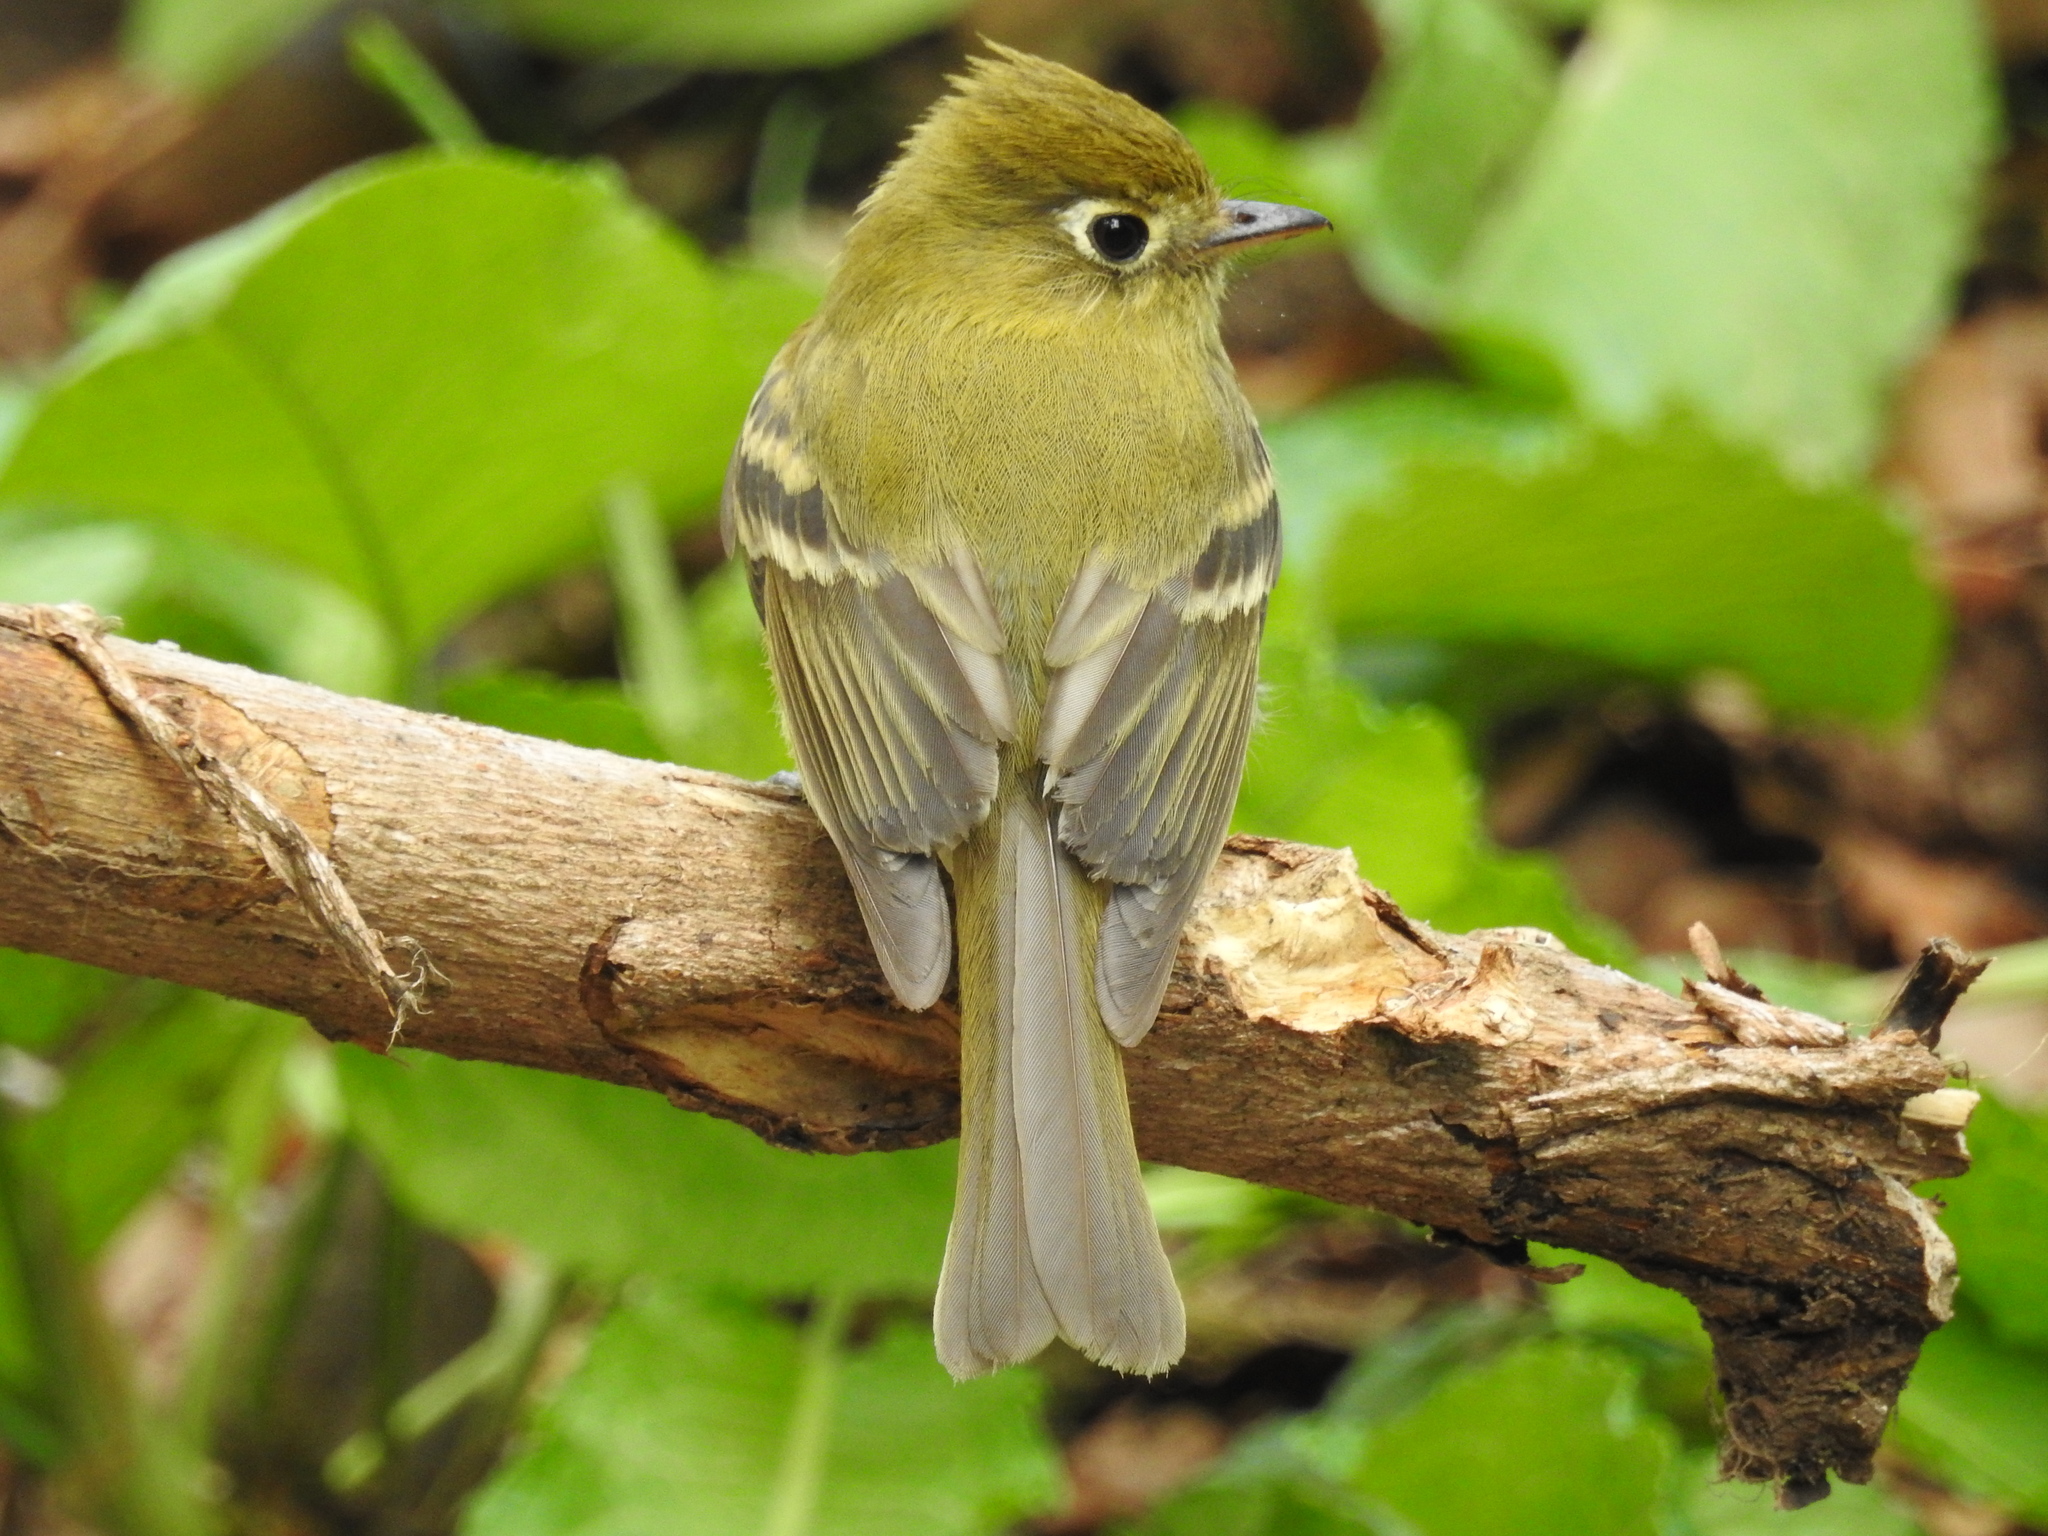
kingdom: Animalia
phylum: Chordata
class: Aves
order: Passeriformes
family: Tyrannidae
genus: Empidonax
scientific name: Empidonax flavescens
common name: Yellowish flycatcher
